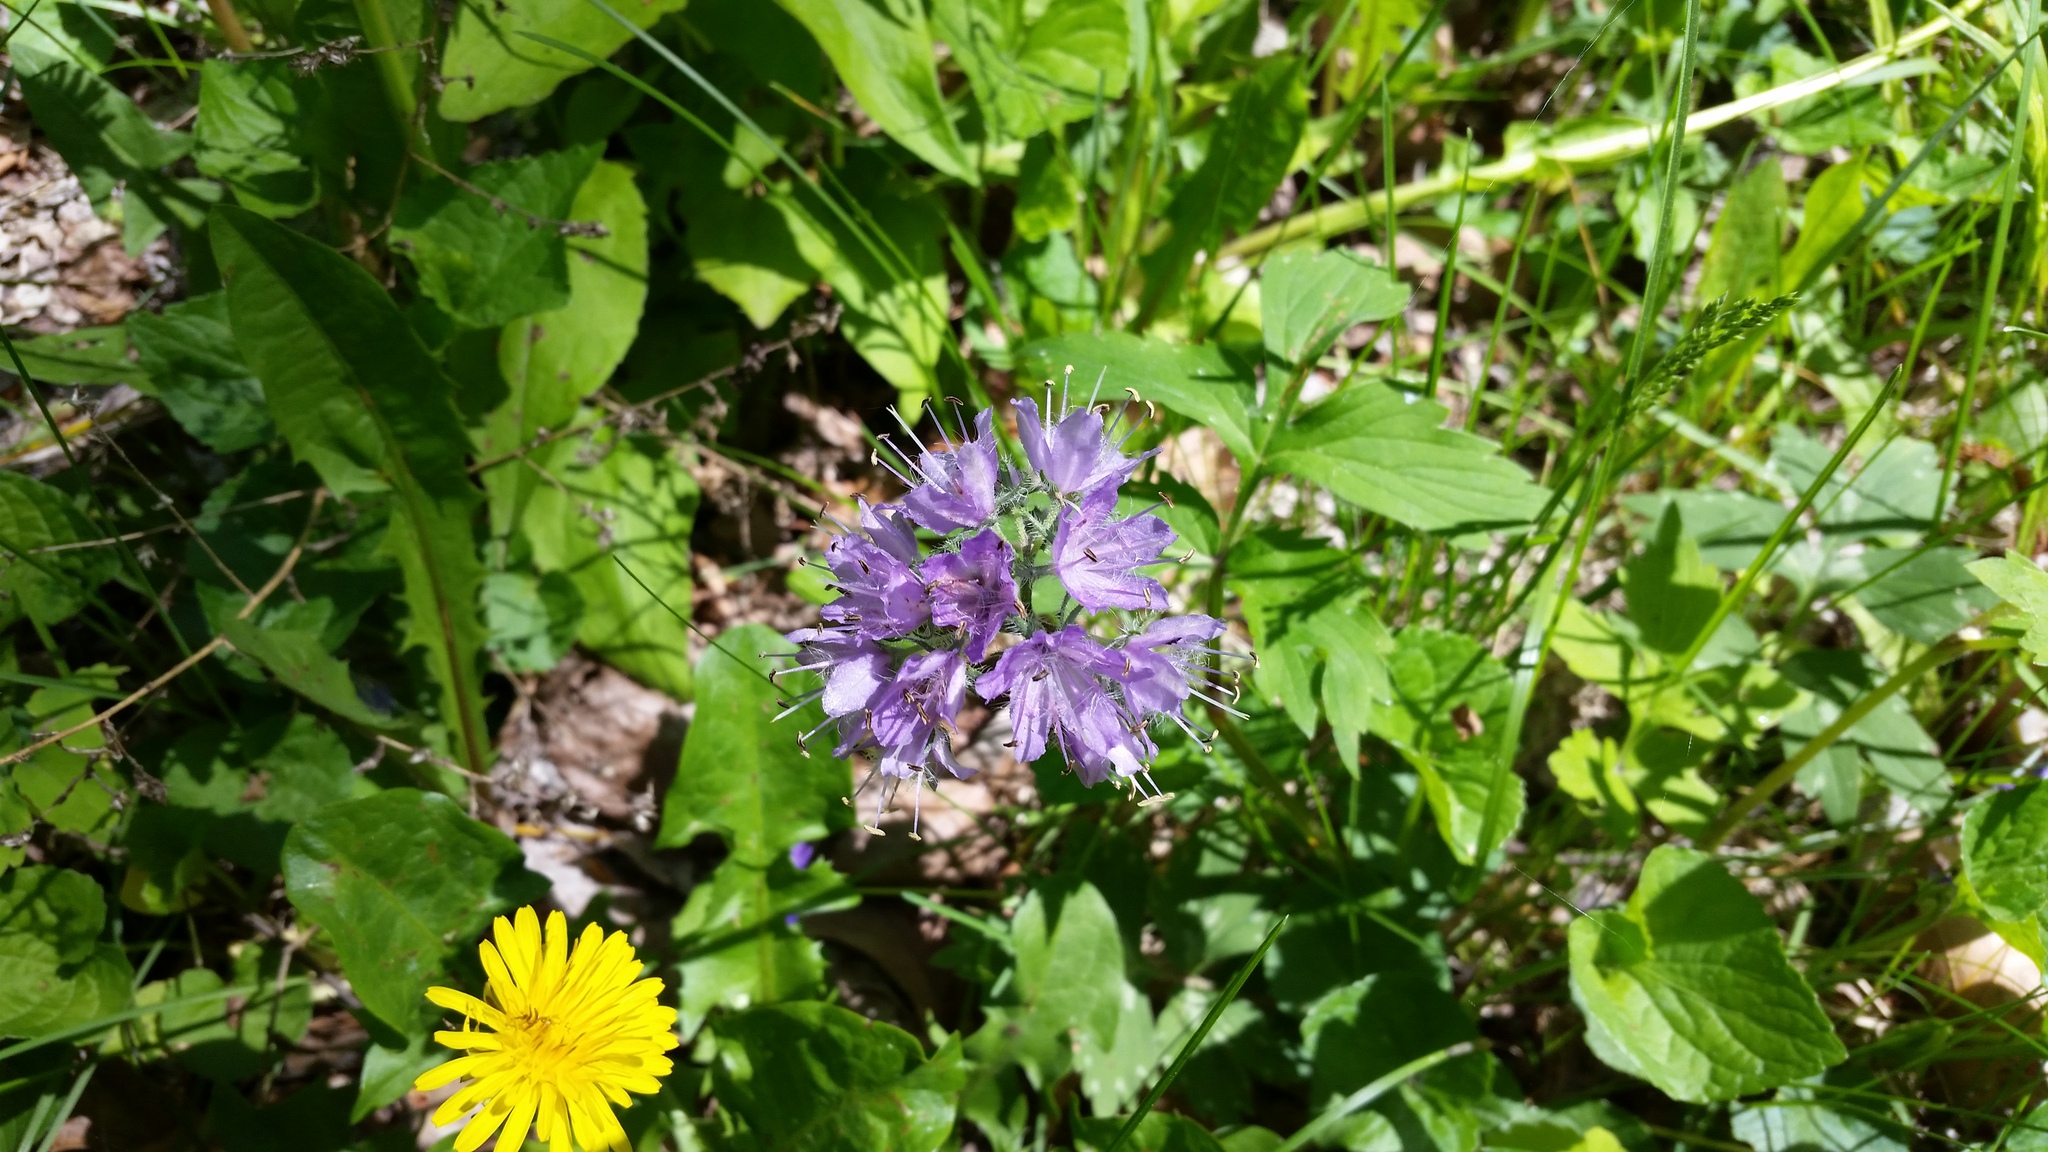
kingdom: Plantae
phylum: Tracheophyta
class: Magnoliopsida
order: Boraginales
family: Hydrophyllaceae
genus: Hydrophyllum
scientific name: Hydrophyllum virginianum
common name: Virginia waterleaf
